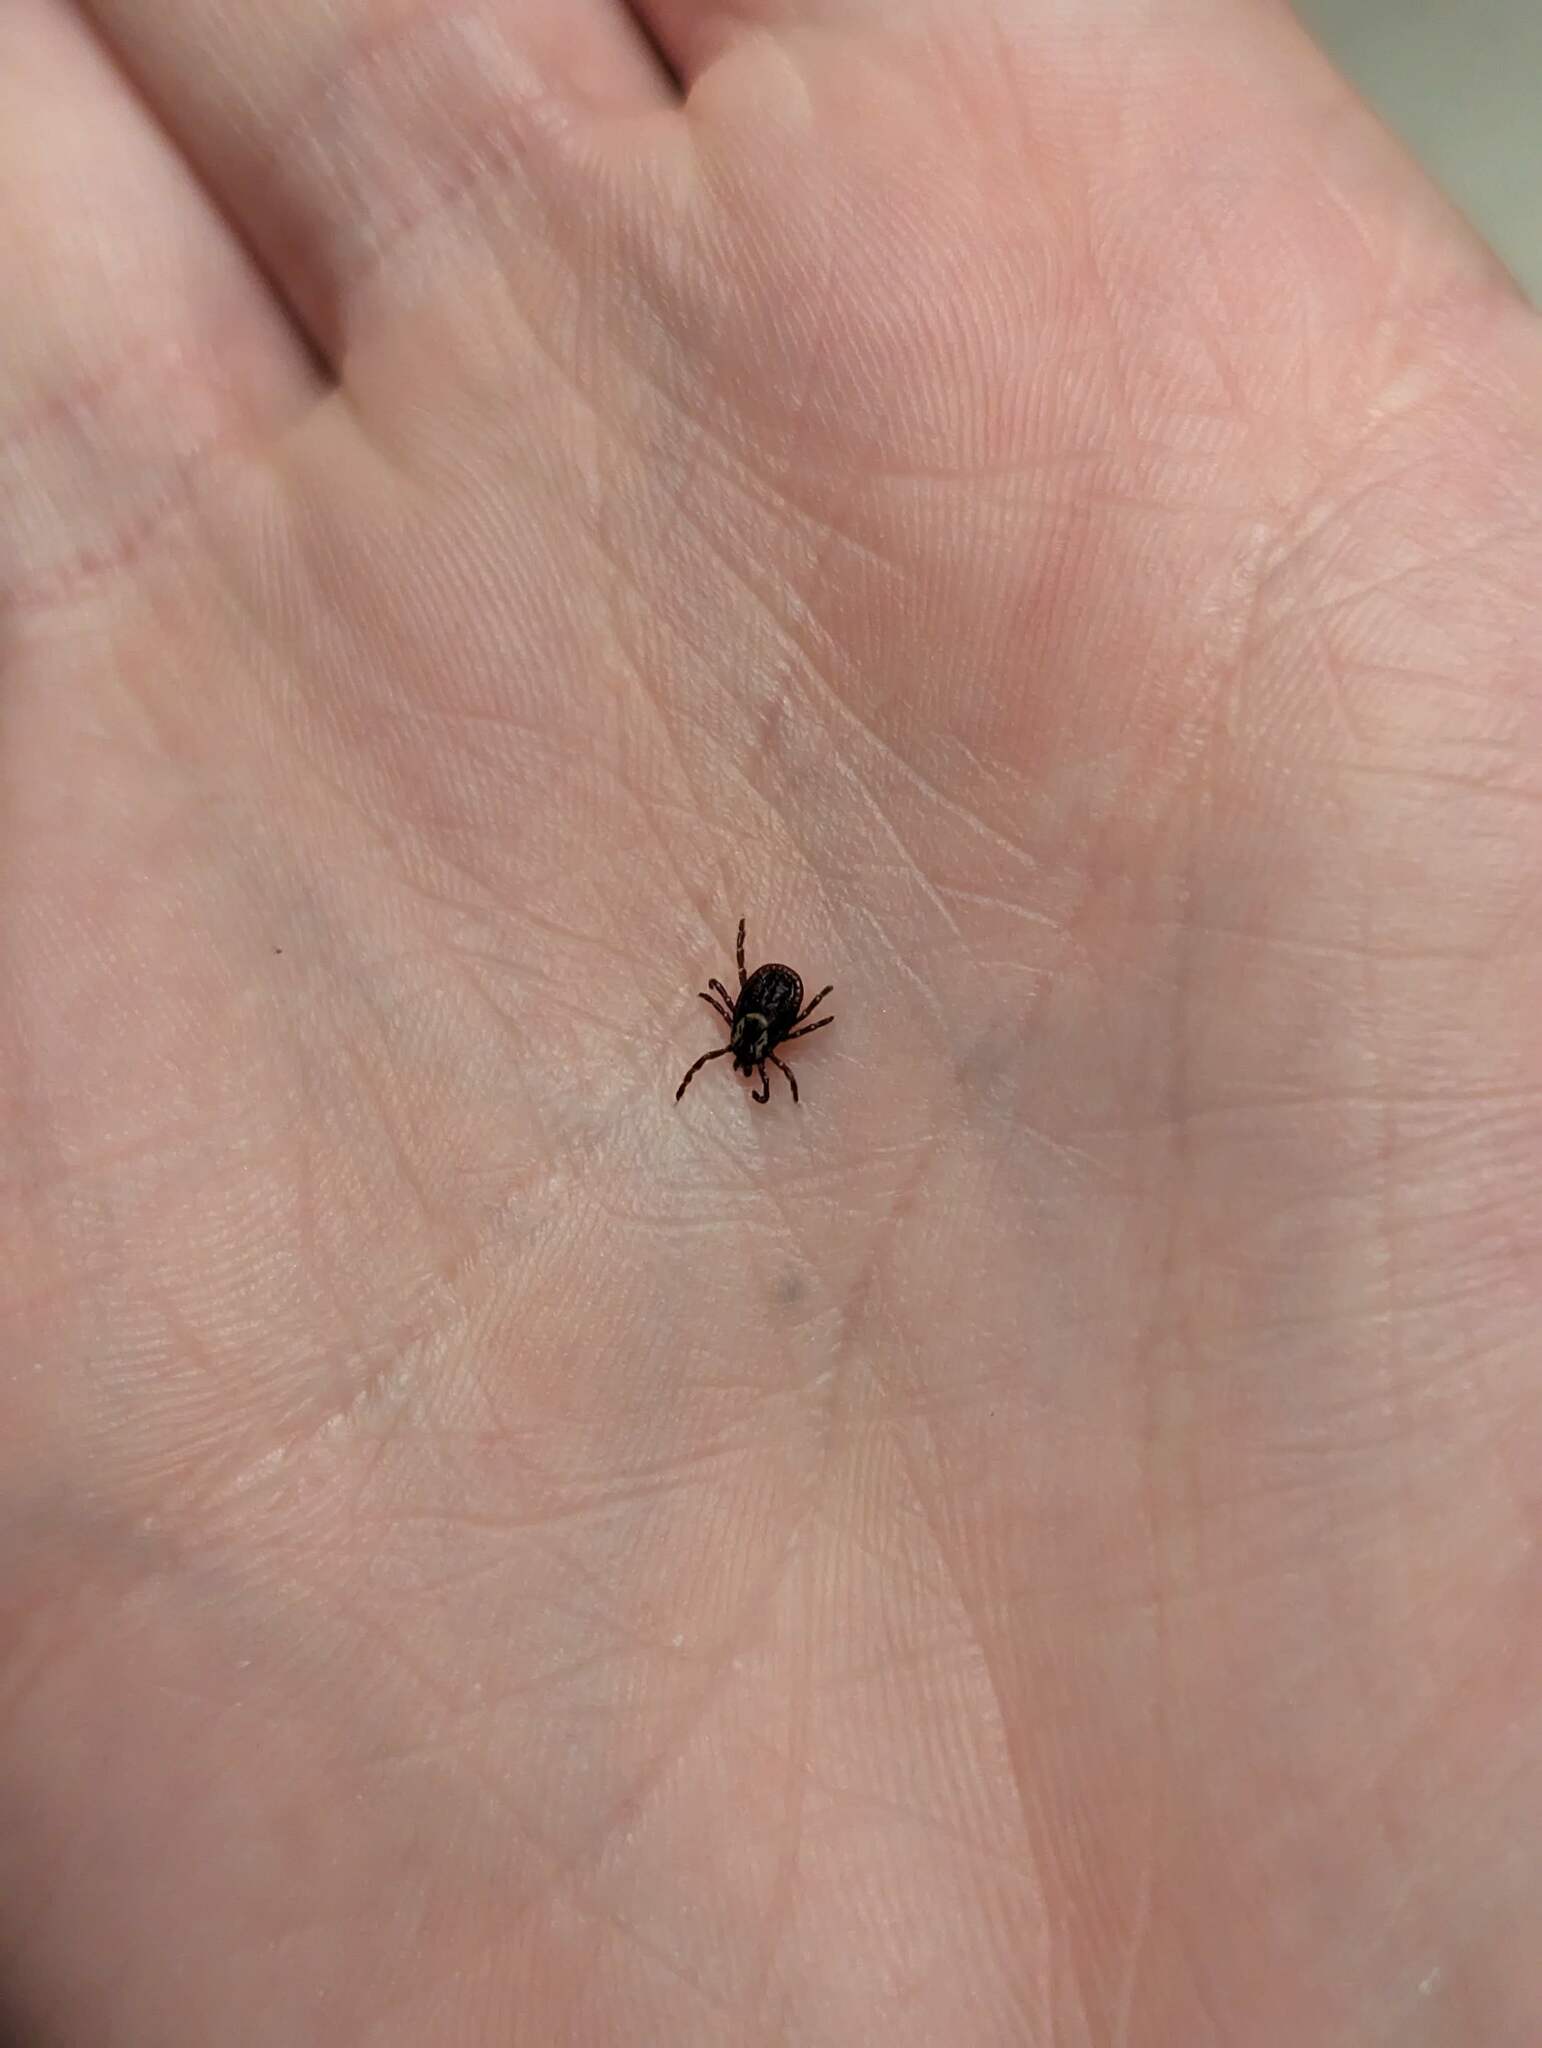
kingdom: Animalia
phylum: Arthropoda
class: Arachnida
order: Ixodida
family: Ixodidae
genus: Dermacentor
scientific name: Dermacentor variabilis
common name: American dog tick
